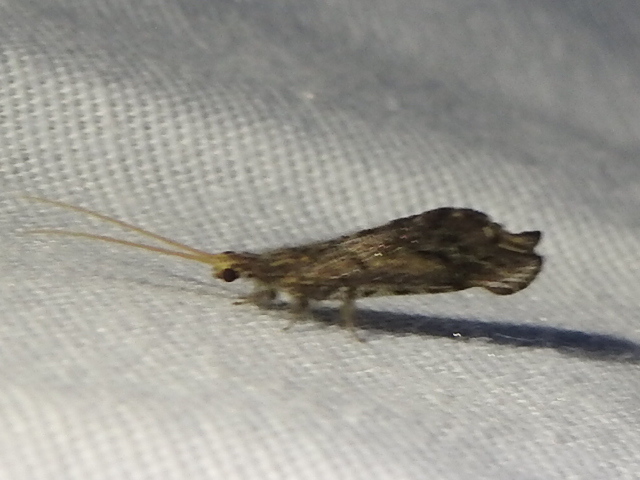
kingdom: Animalia
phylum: Arthropoda
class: Insecta
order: Neuroptera
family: Berothidae
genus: Lomamyia
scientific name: Lomamyia
